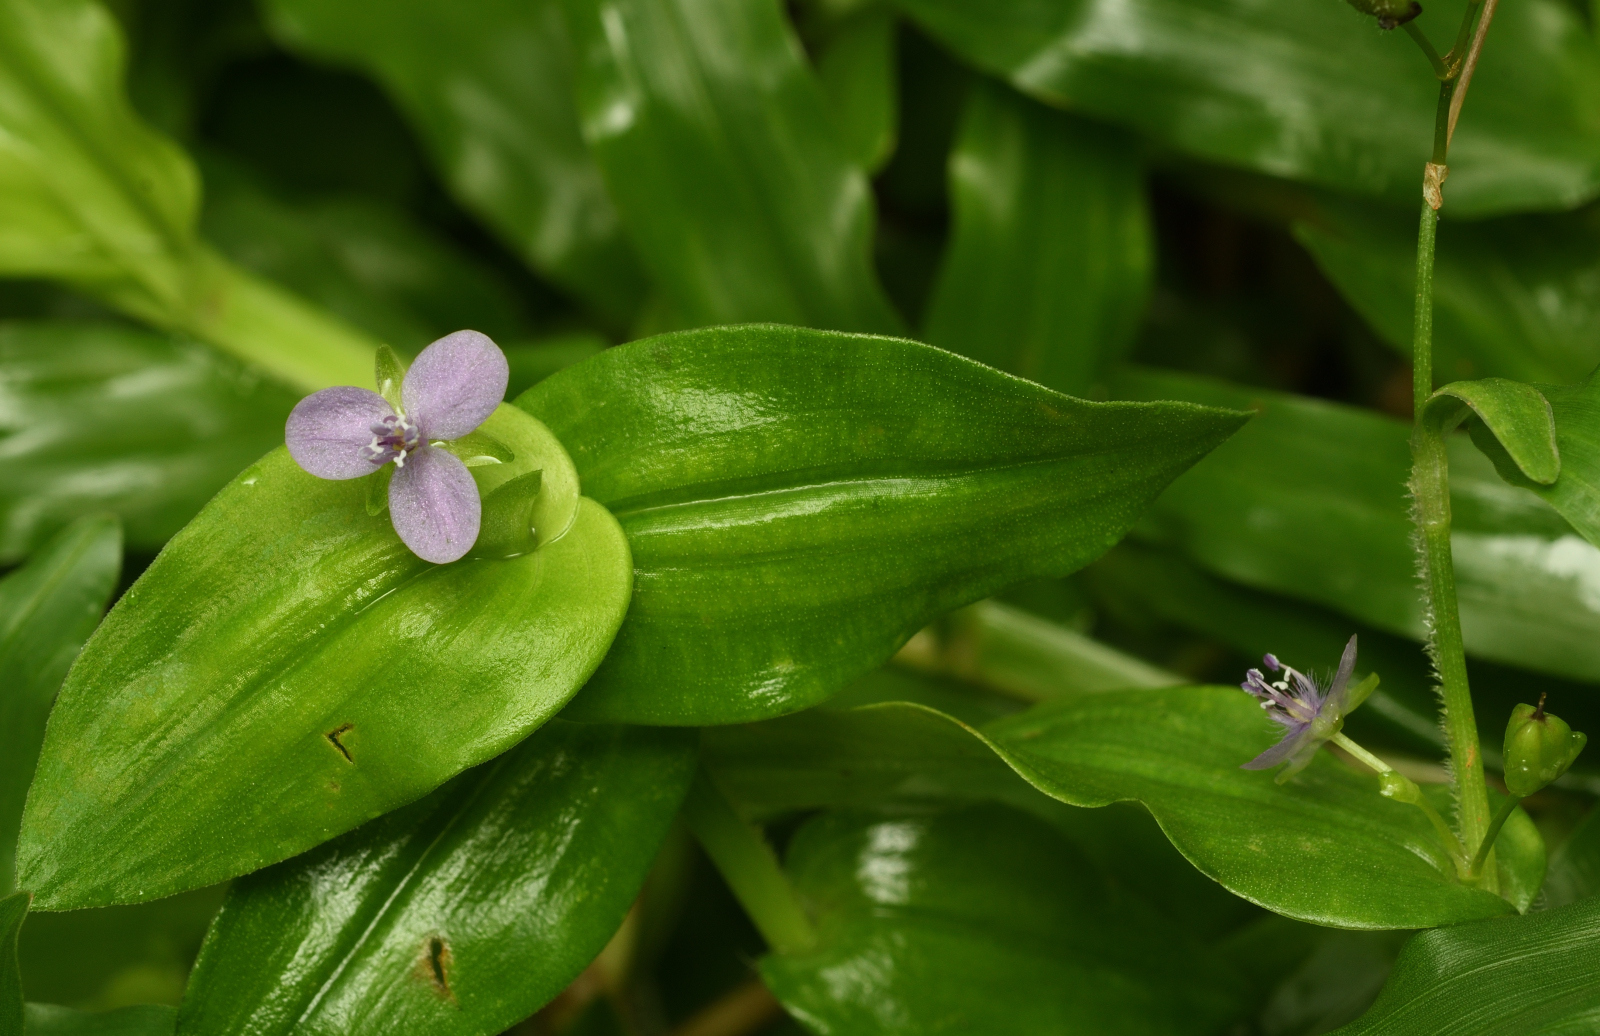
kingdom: Plantae
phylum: Tracheophyta
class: Liliopsida
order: Commelinales
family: Commelinaceae
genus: Murdannia
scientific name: Murdannia spirata
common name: Asiatic dewflower
